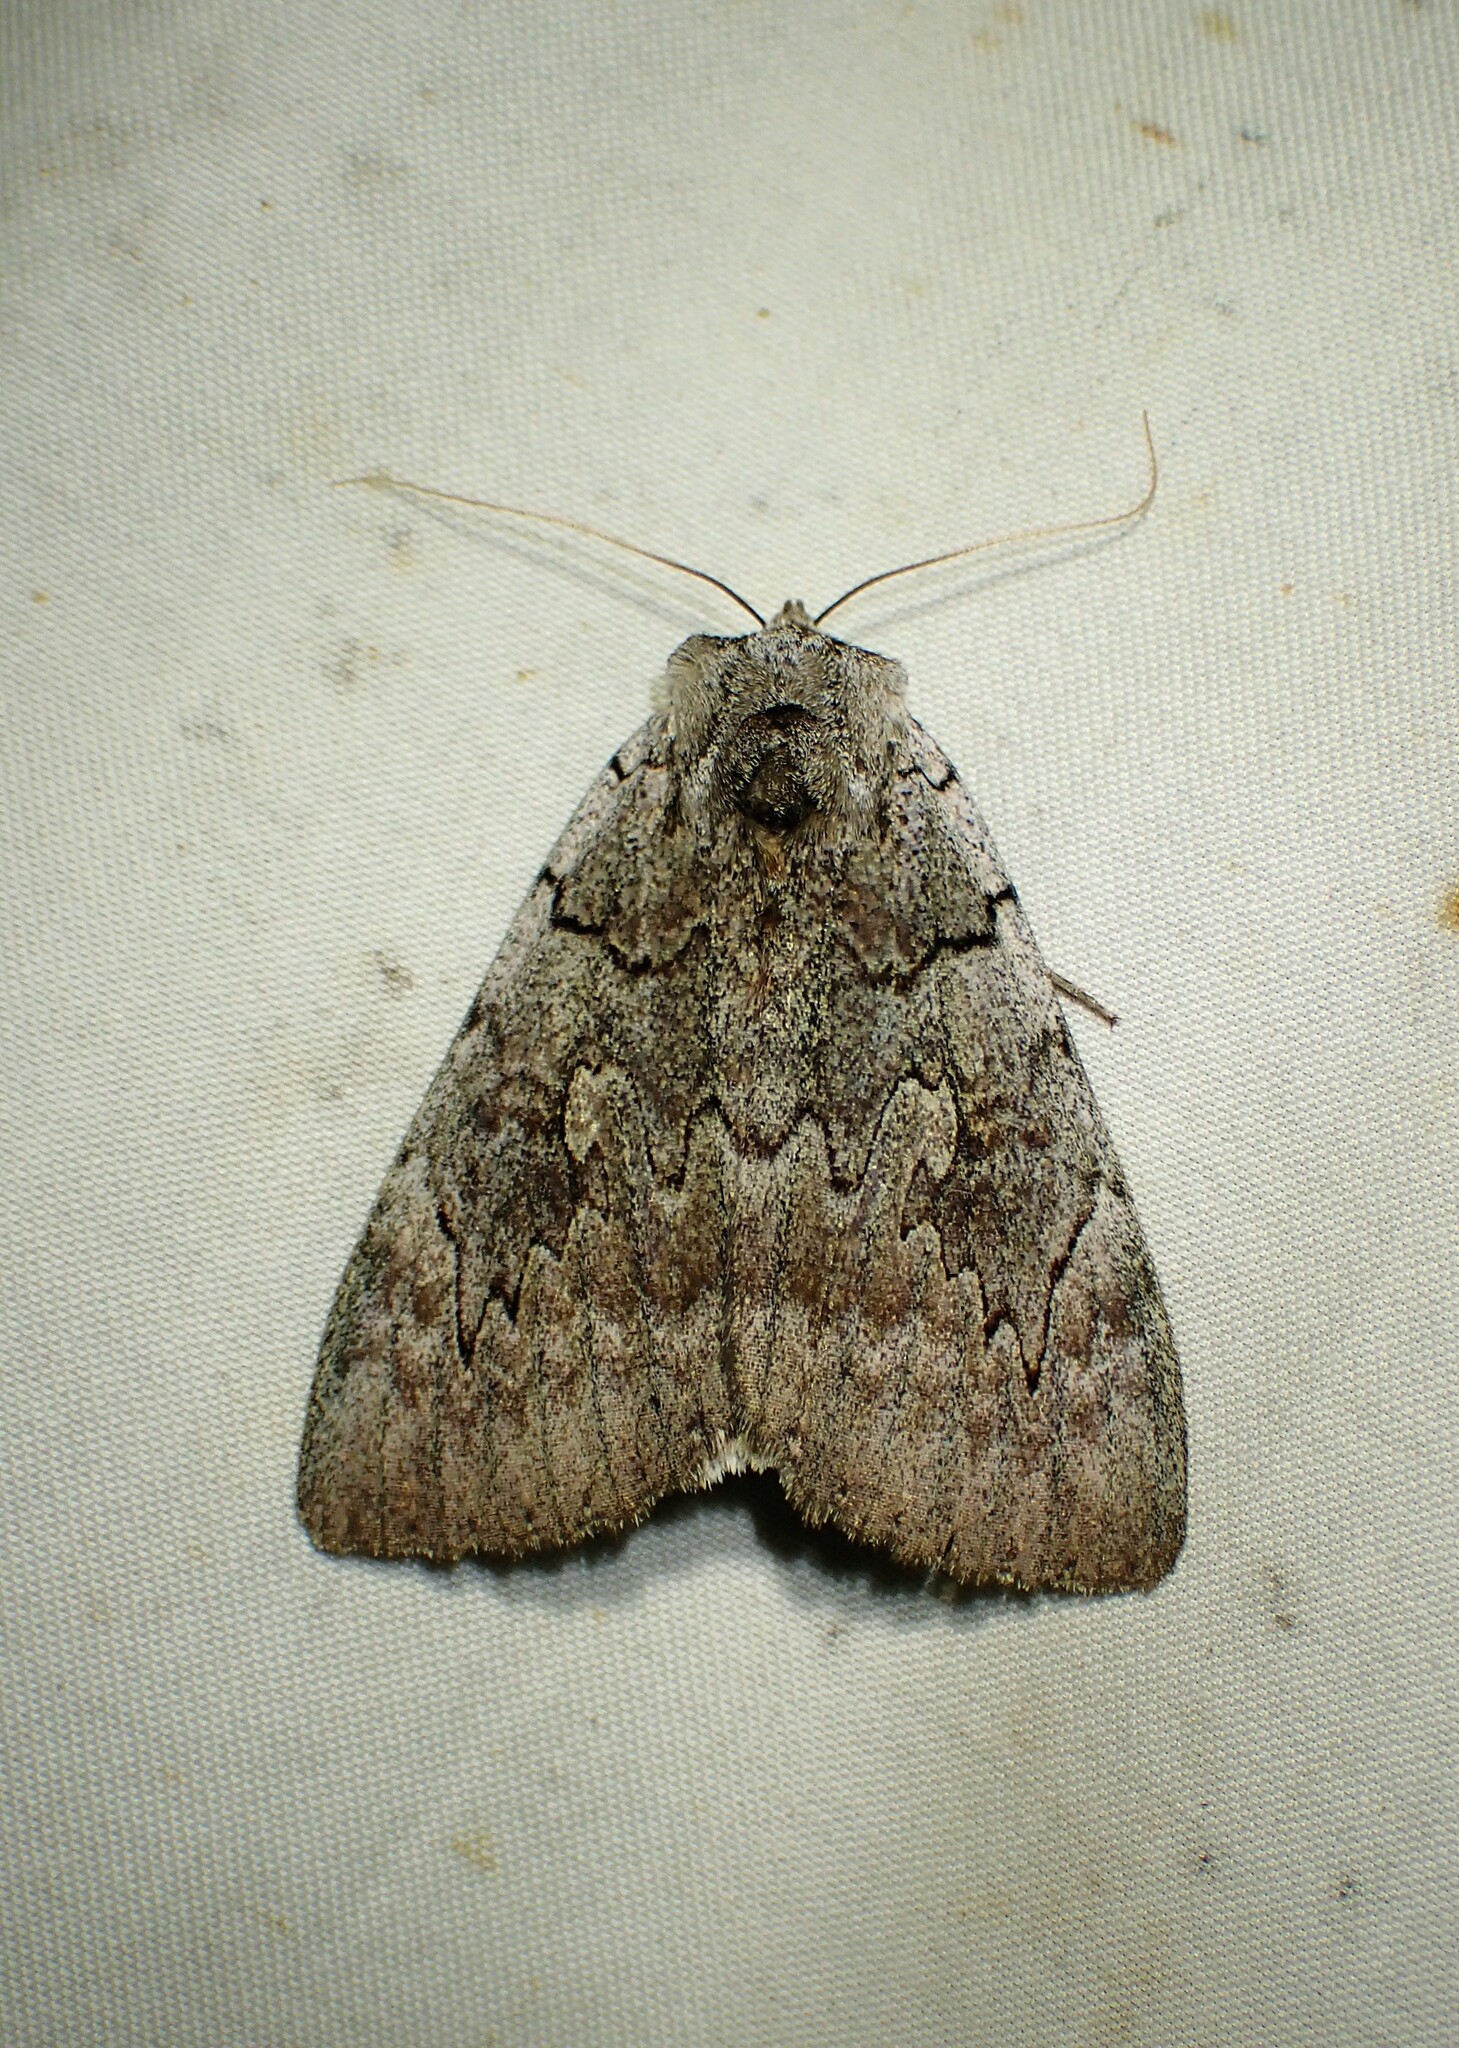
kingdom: Animalia
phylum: Arthropoda
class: Insecta
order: Lepidoptera
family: Erebidae
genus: Catocala
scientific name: Catocala concumbens
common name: Pink underwing
